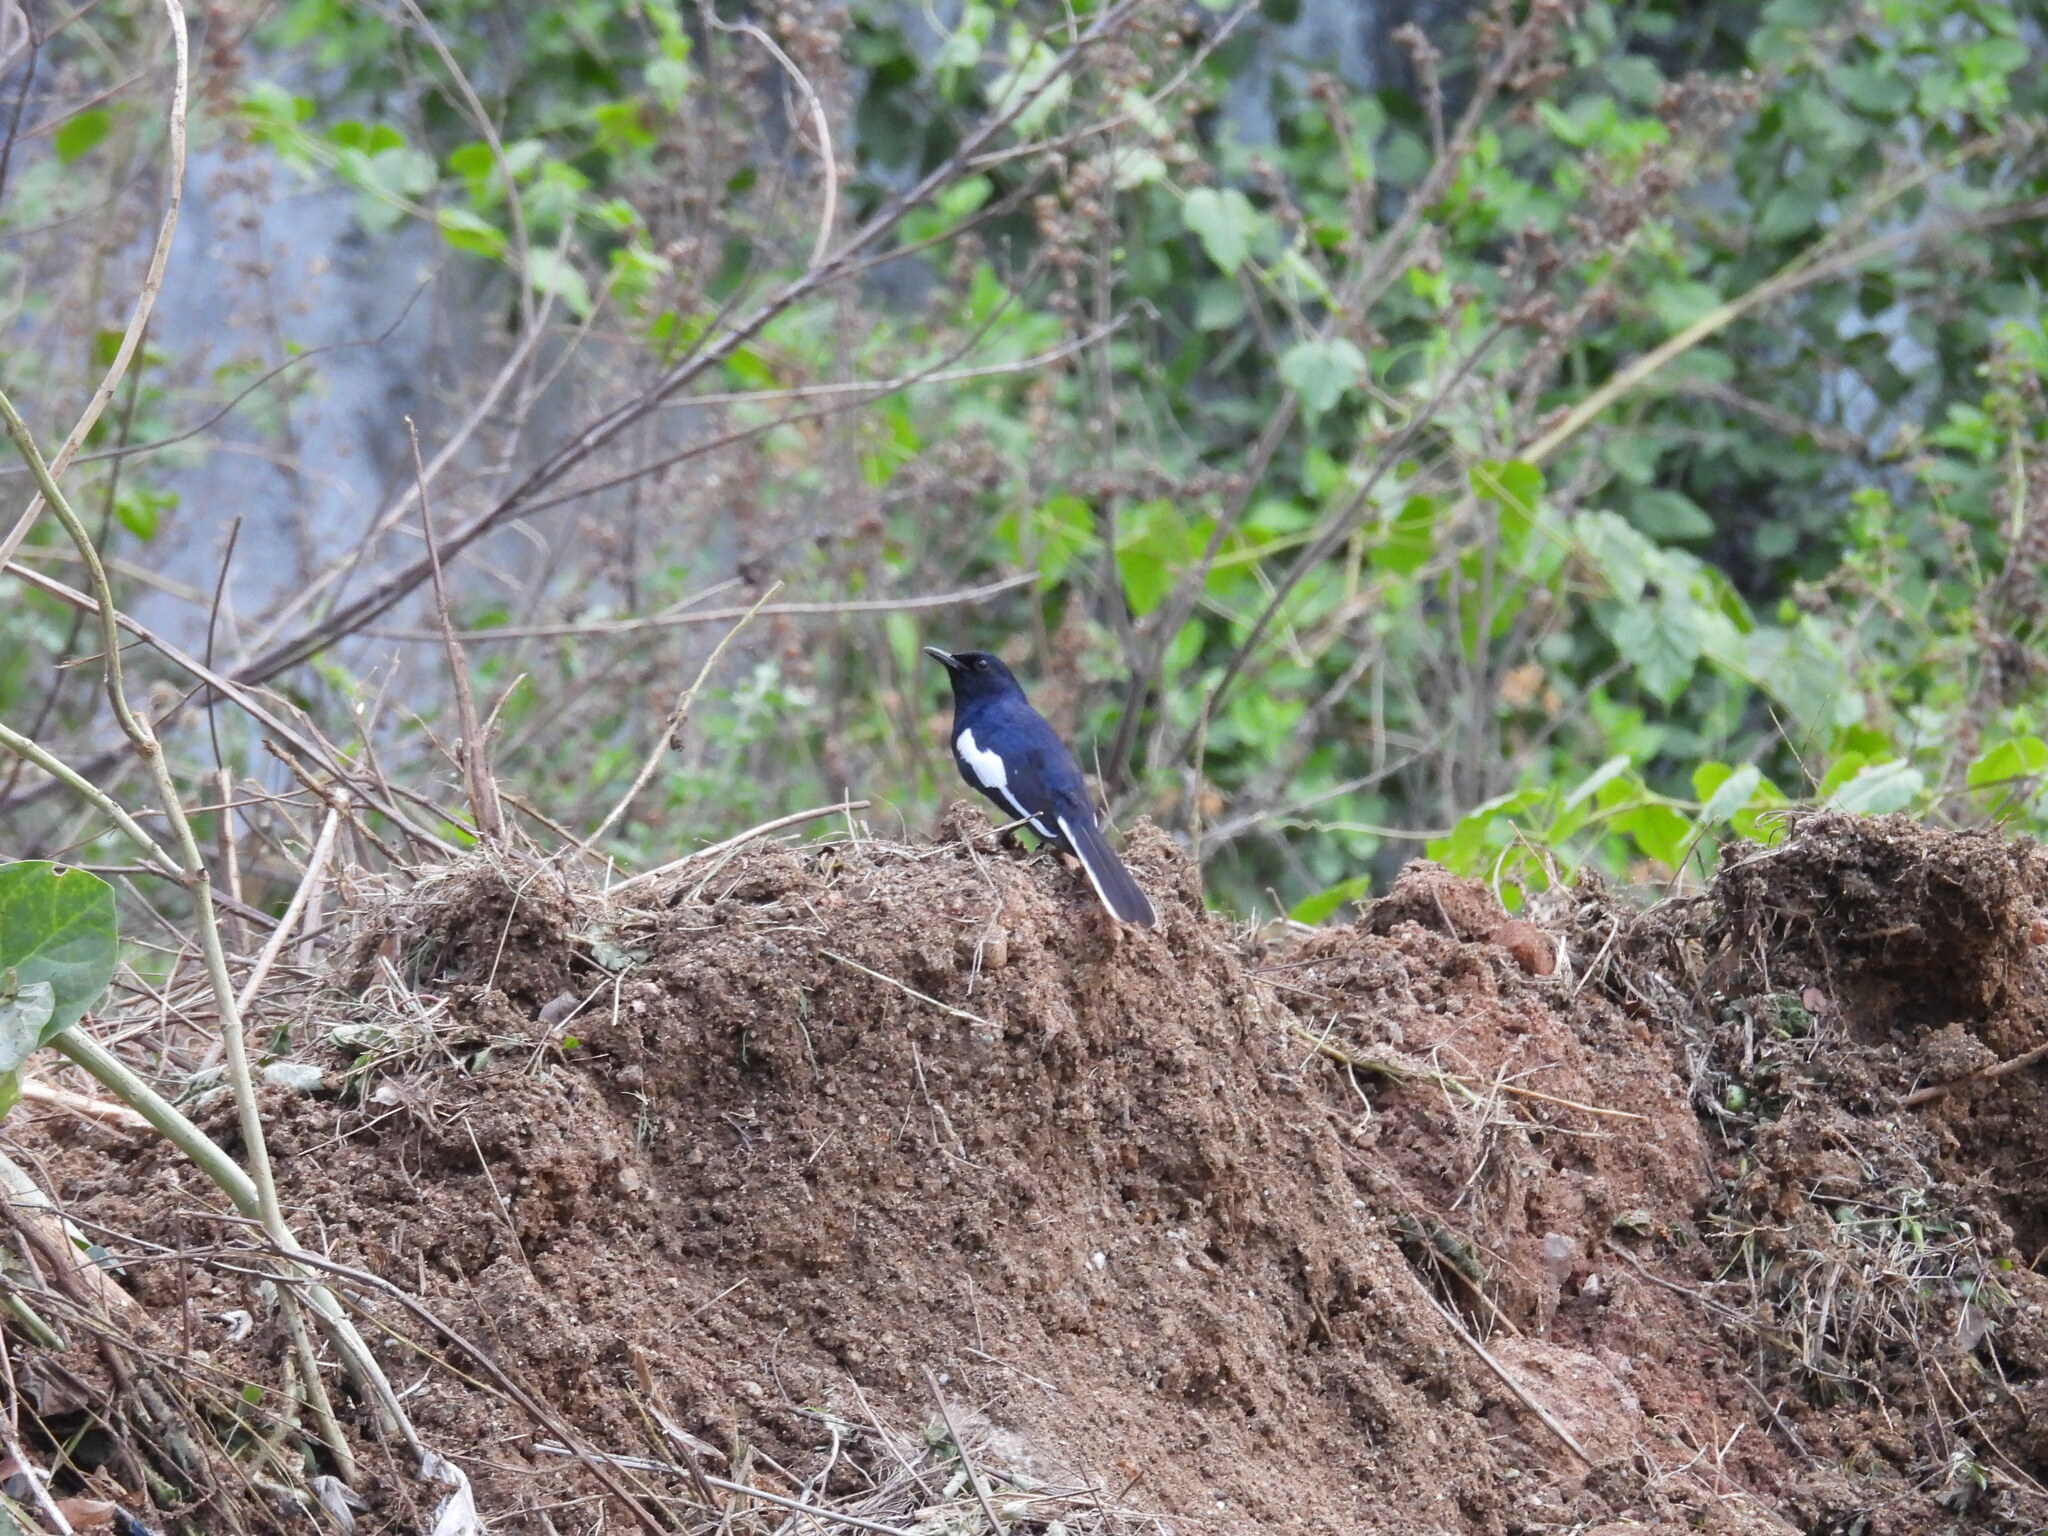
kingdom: Animalia
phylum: Chordata
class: Aves
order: Passeriformes
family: Muscicapidae
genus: Copsychus
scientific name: Copsychus saularis
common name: Oriental magpie-robin
